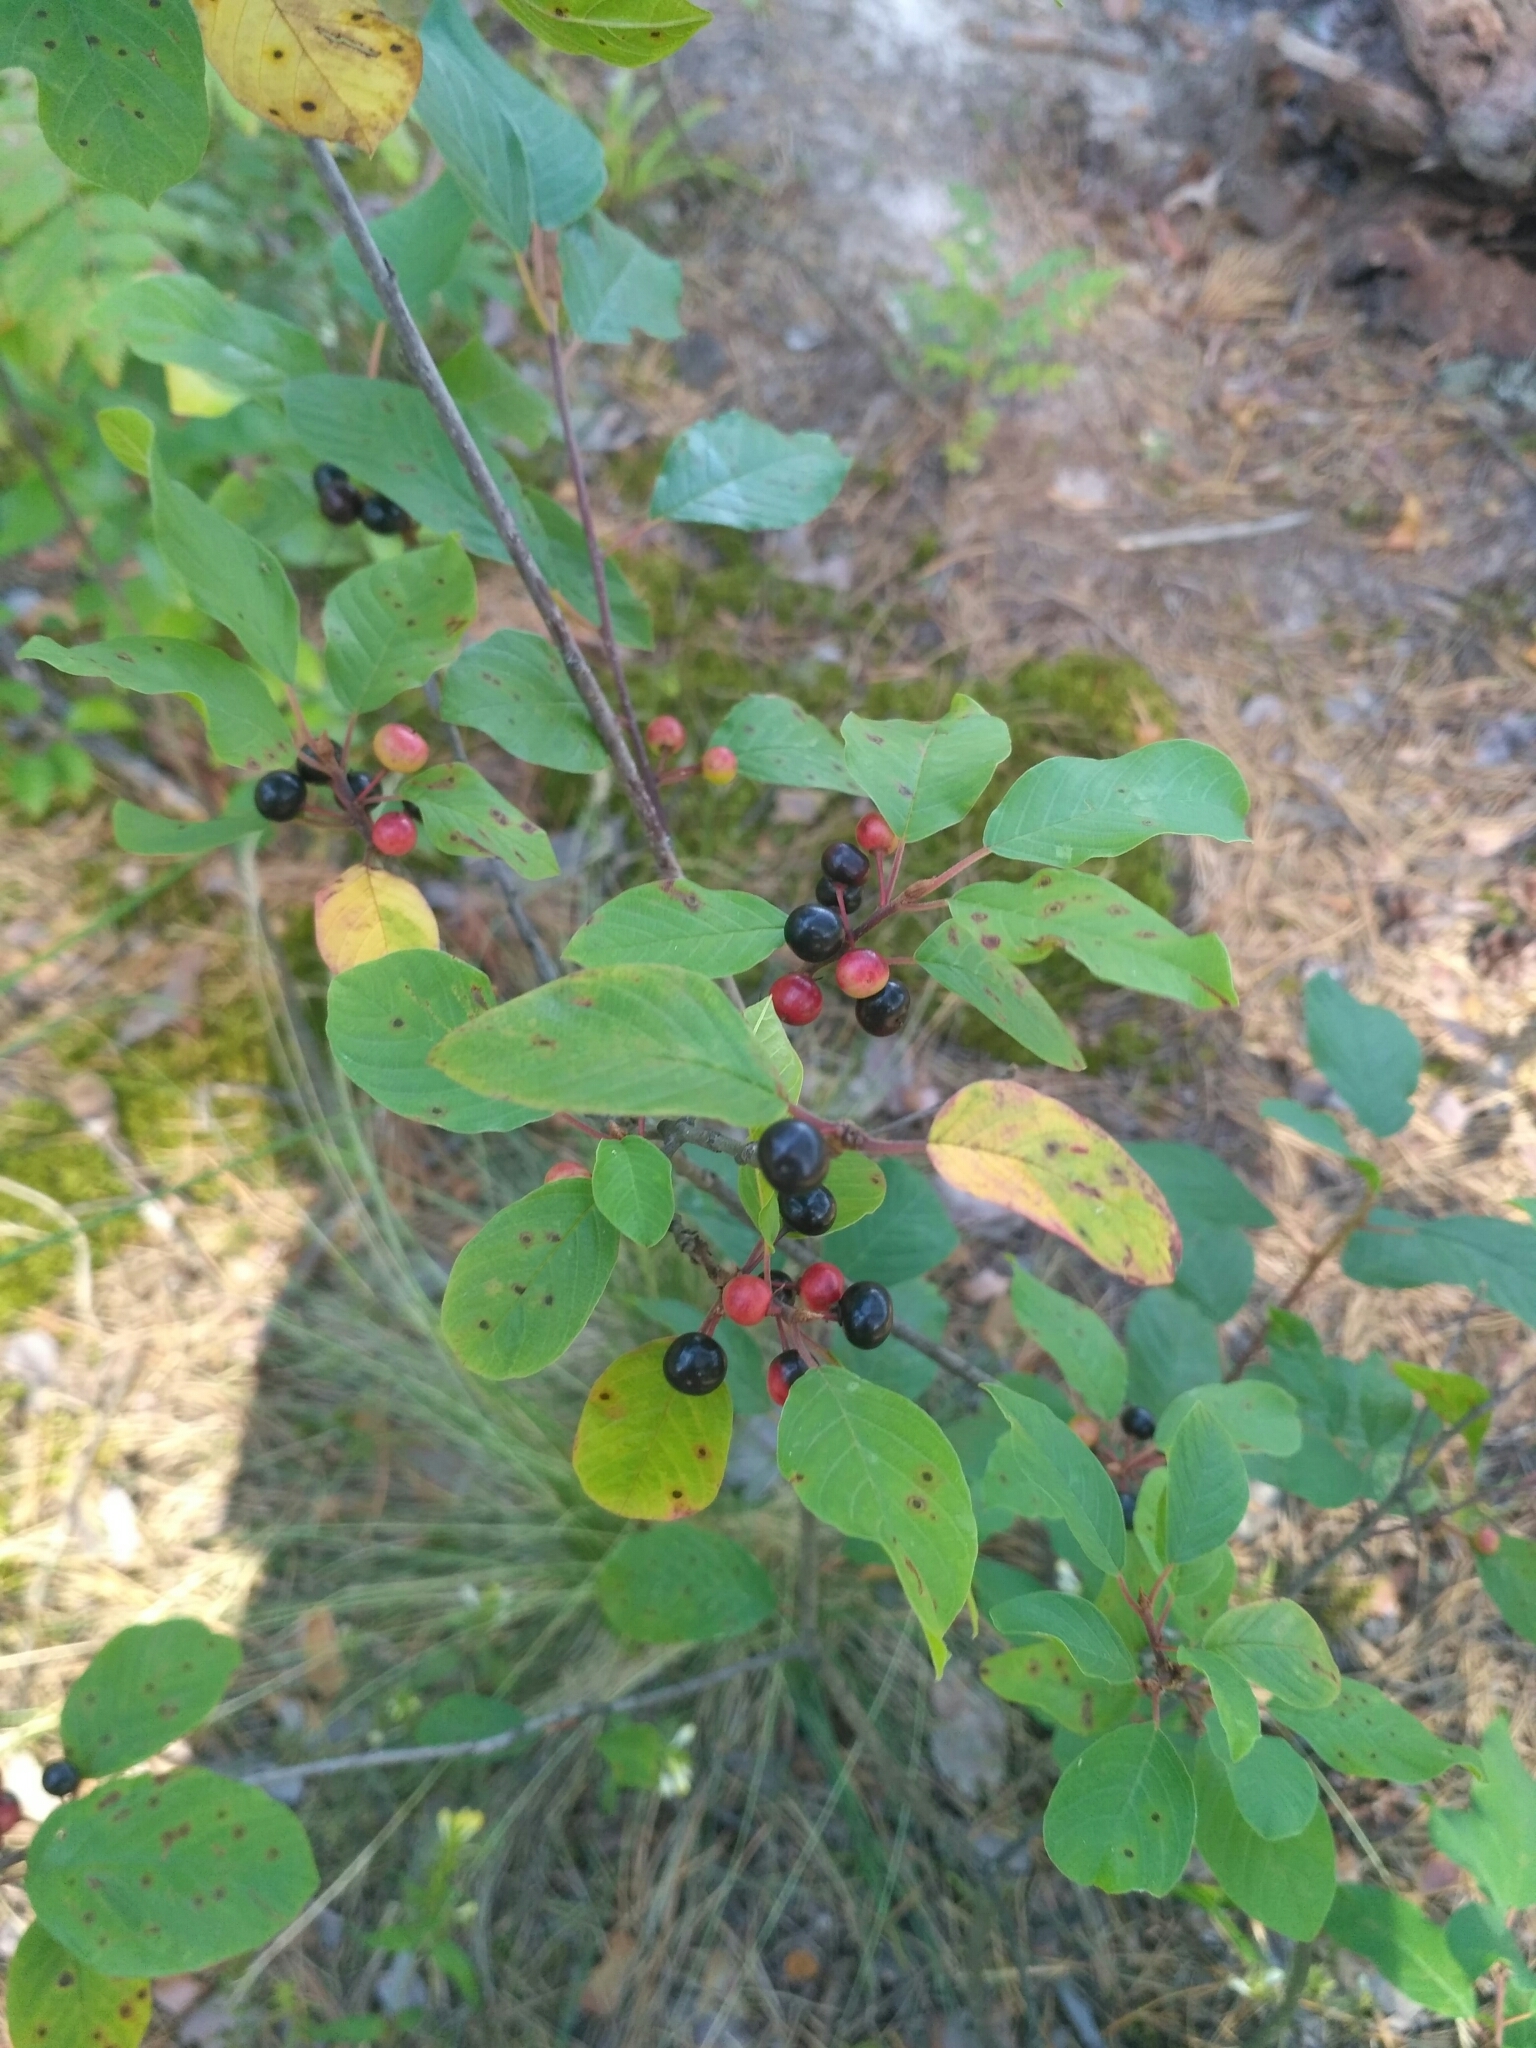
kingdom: Plantae
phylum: Tracheophyta
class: Magnoliopsida
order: Rosales
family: Rhamnaceae
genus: Frangula
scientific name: Frangula alnus
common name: Alder buckthorn
